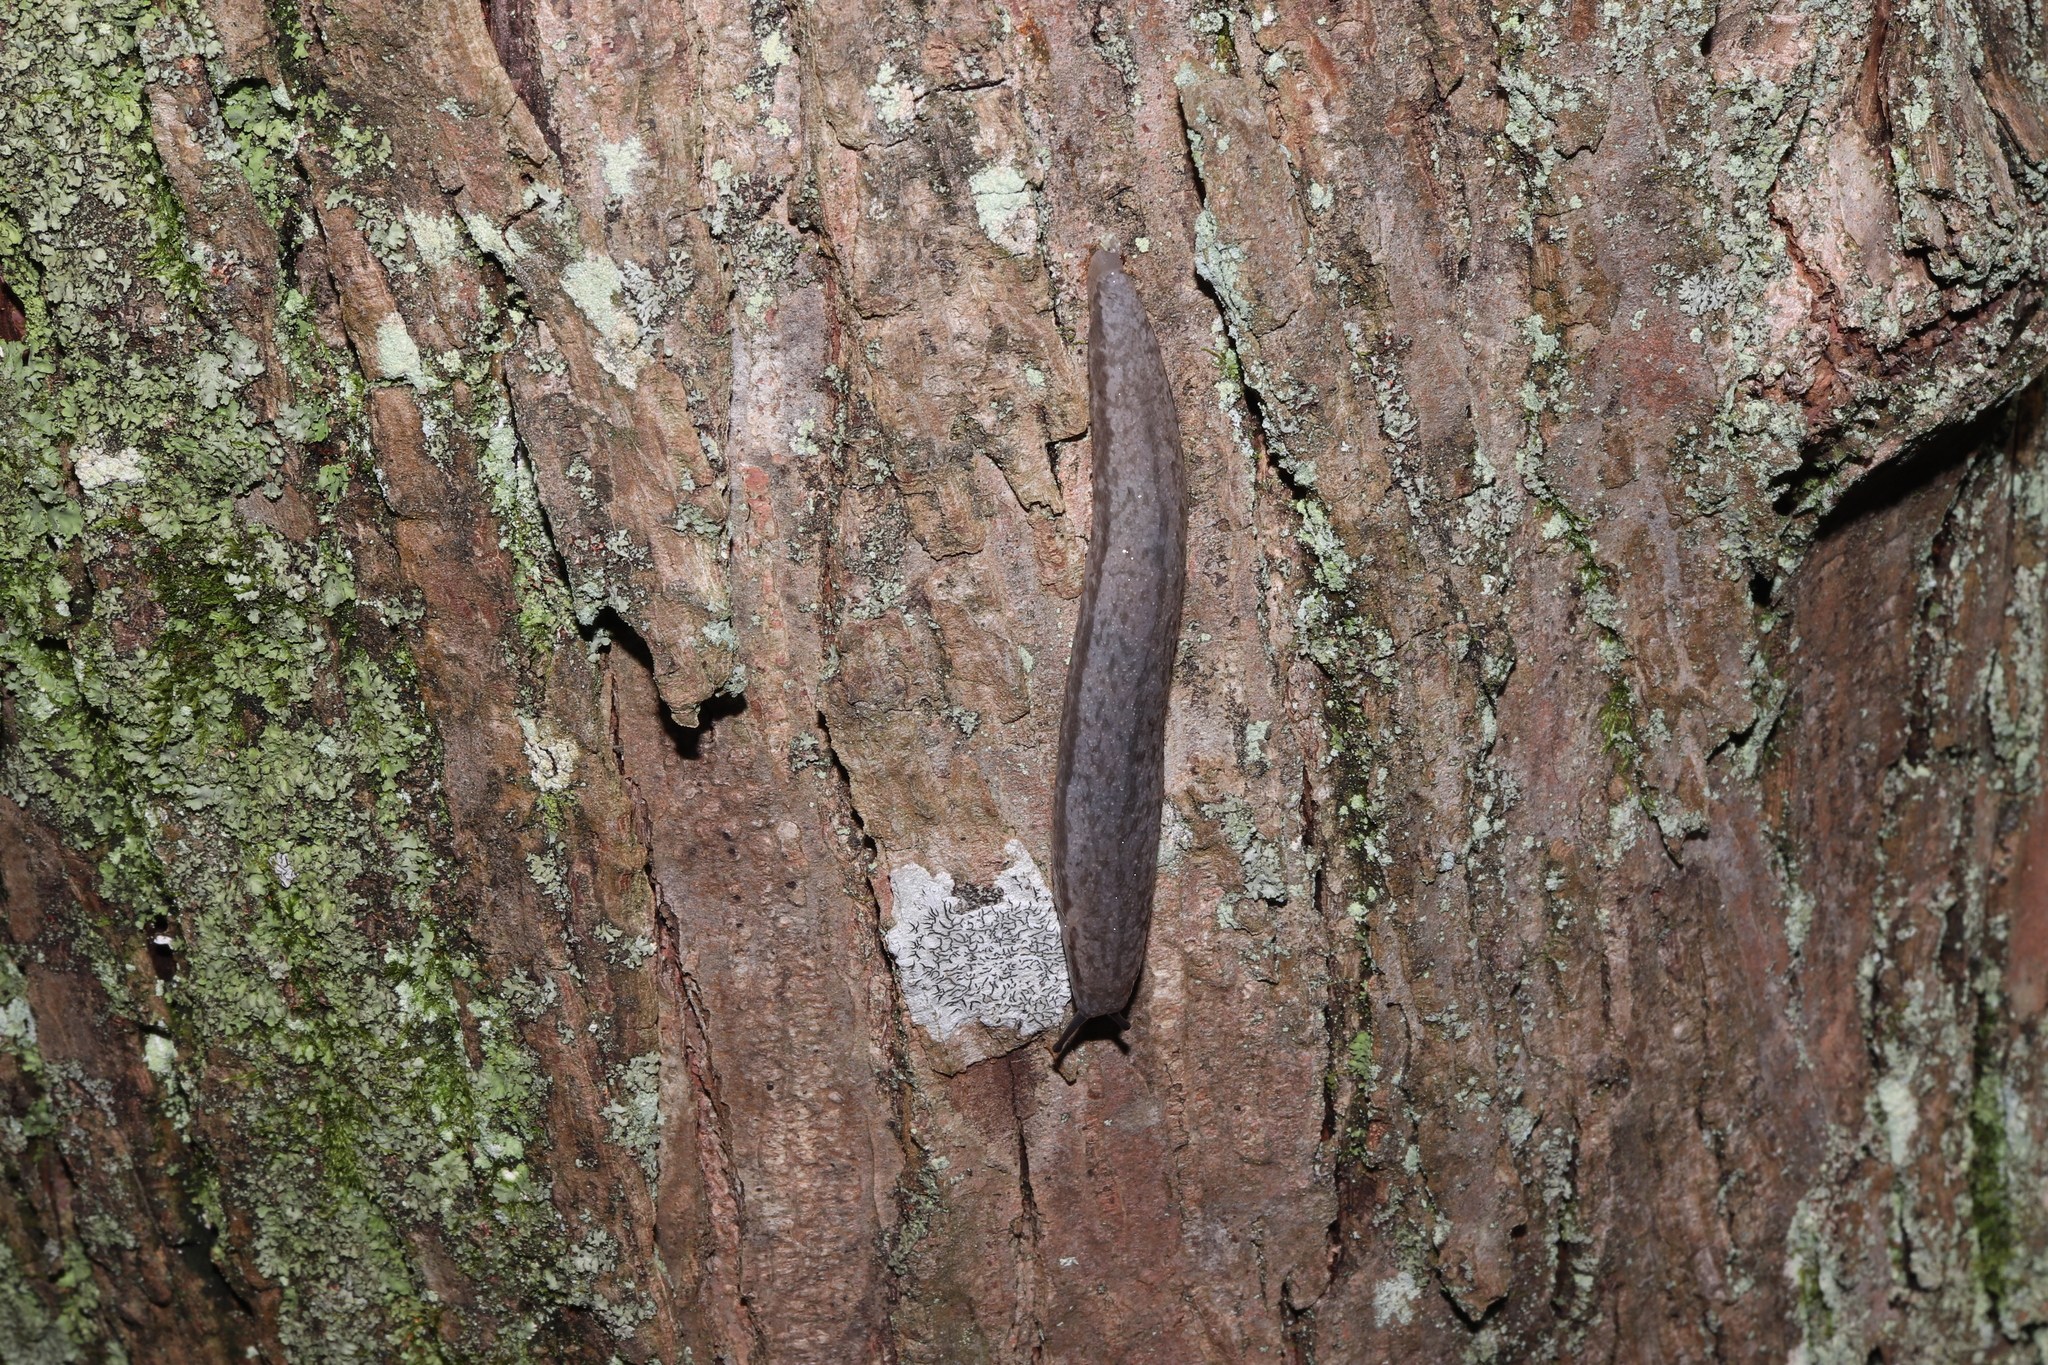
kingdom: Animalia
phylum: Mollusca
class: Gastropoda
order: Stylommatophora
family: Philomycidae
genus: Meghimatium
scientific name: Meghimatium bilineatum
